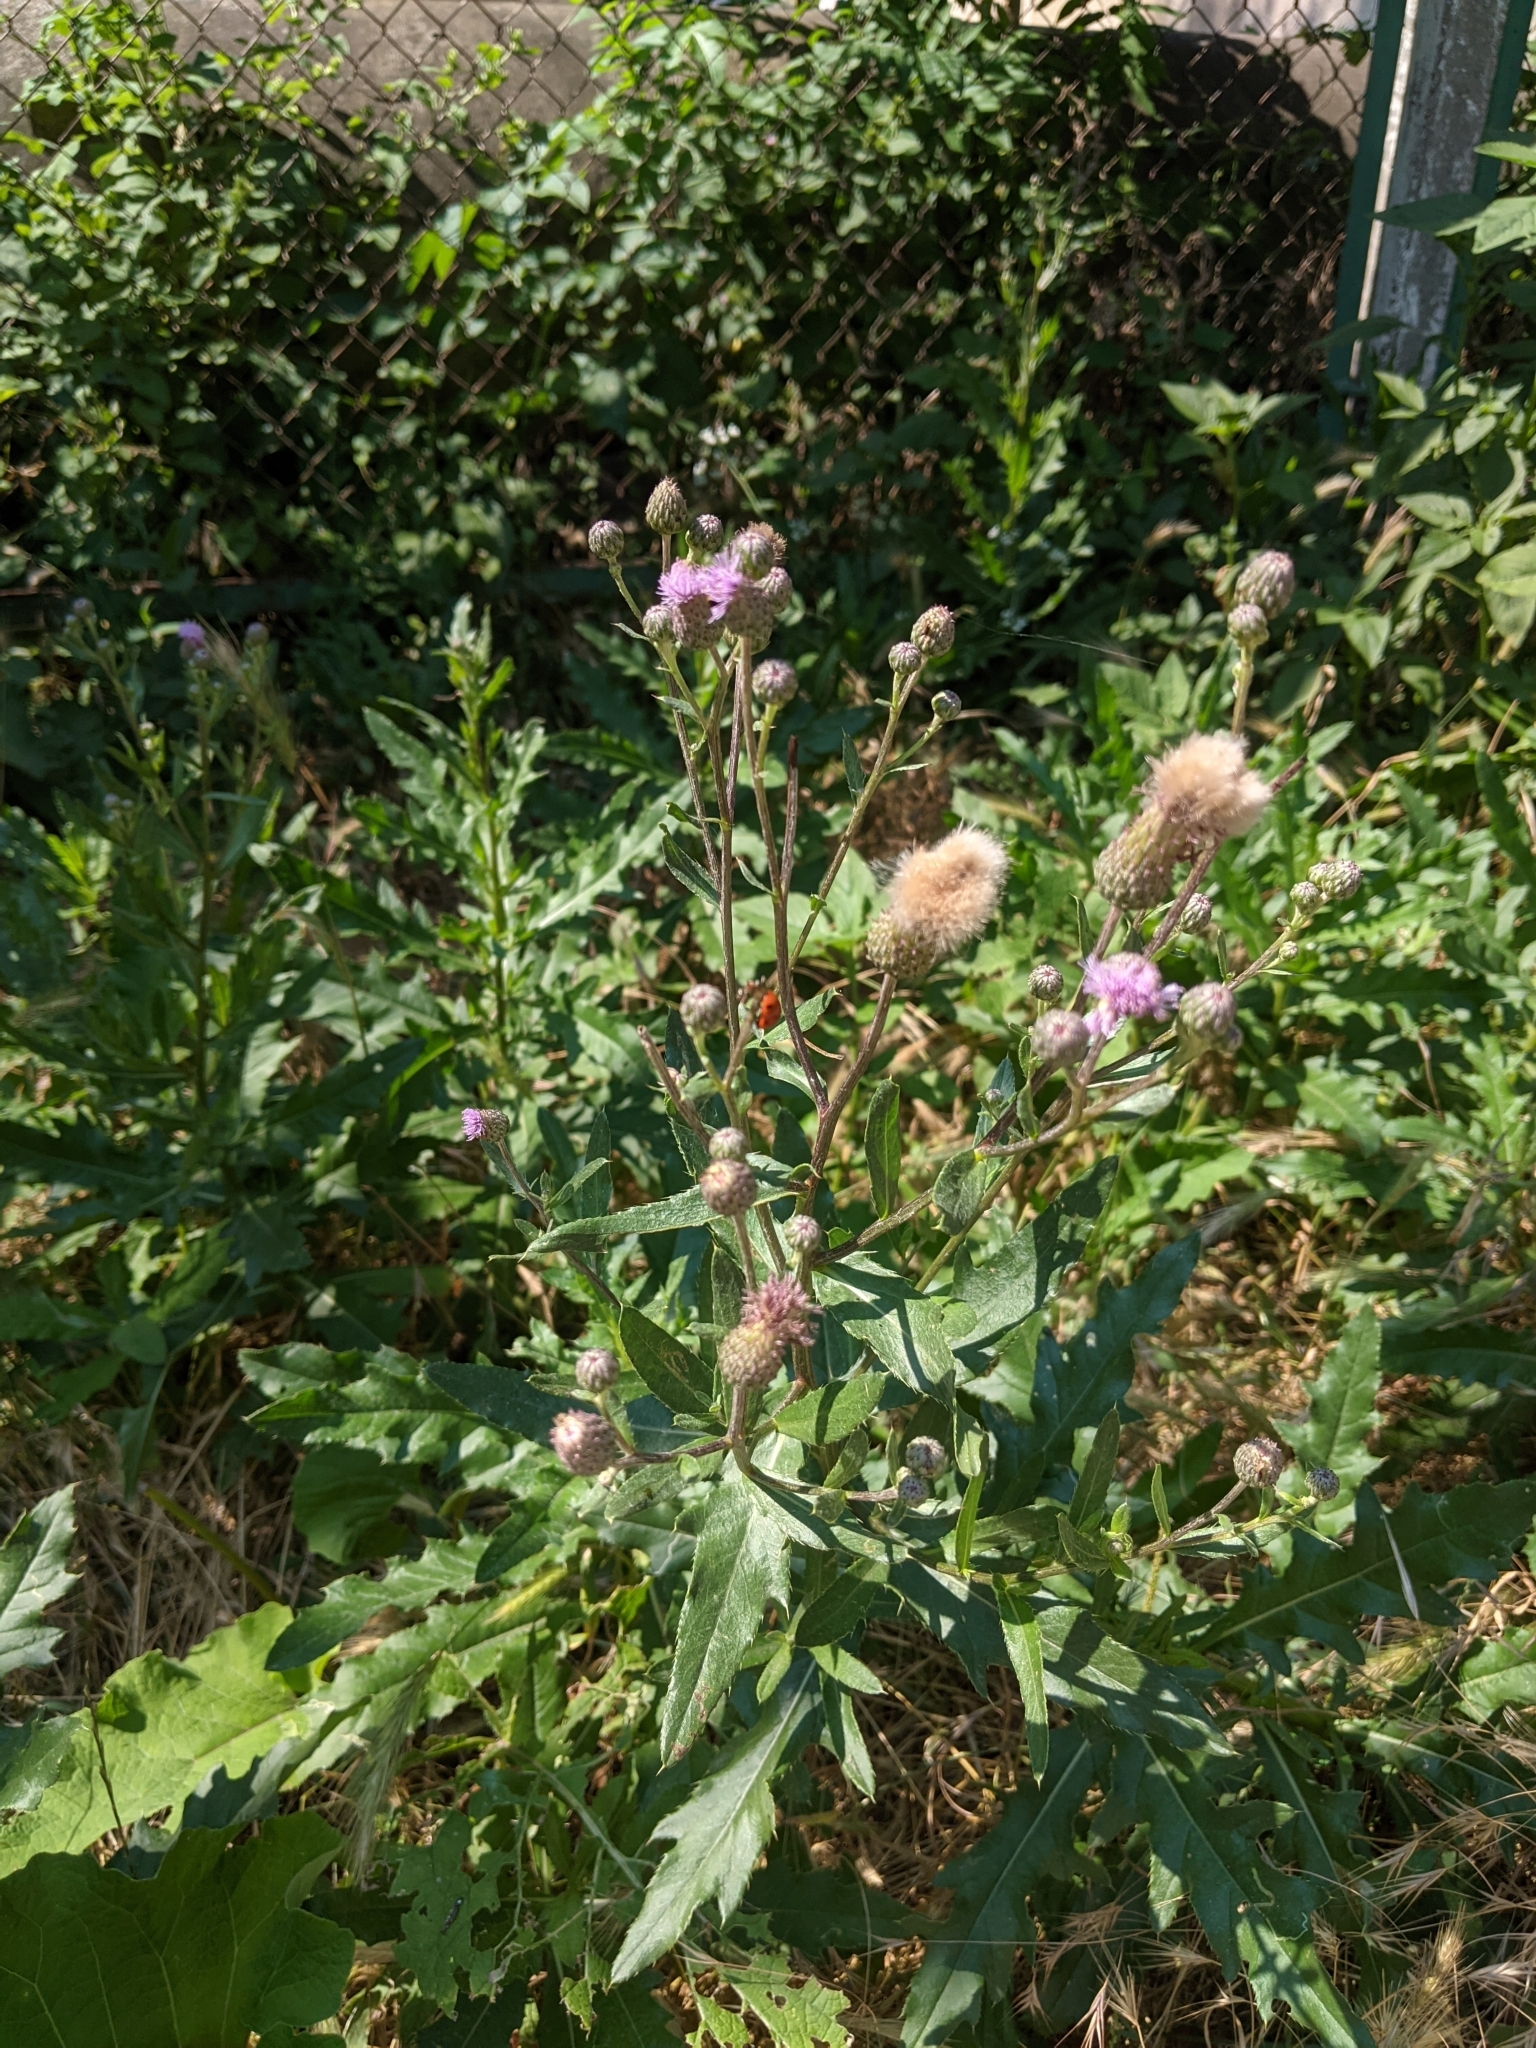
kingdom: Plantae
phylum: Tracheophyta
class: Magnoliopsida
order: Asterales
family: Asteraceae
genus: Cirsium
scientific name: Cirsium arvense
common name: Creeping thistle
